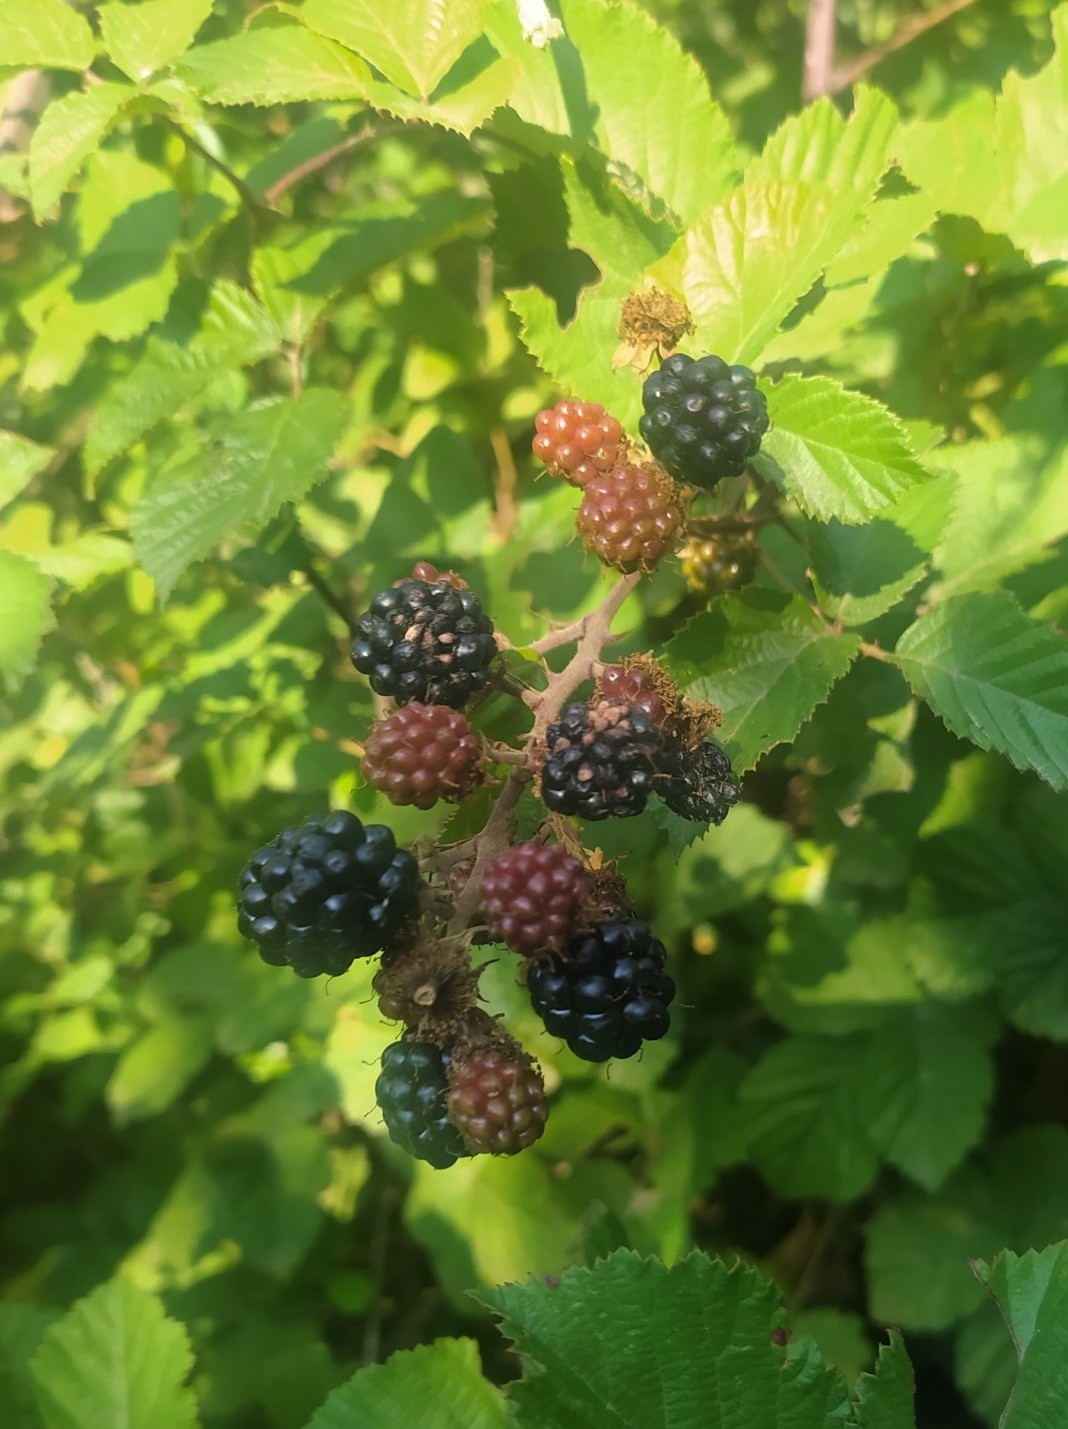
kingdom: Plantae
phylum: Tracheophyta
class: Magnoliopsida
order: Rosales
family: Rosaceae
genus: Rubus
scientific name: Rubus ulmifolius
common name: Elmleaf blackberry
